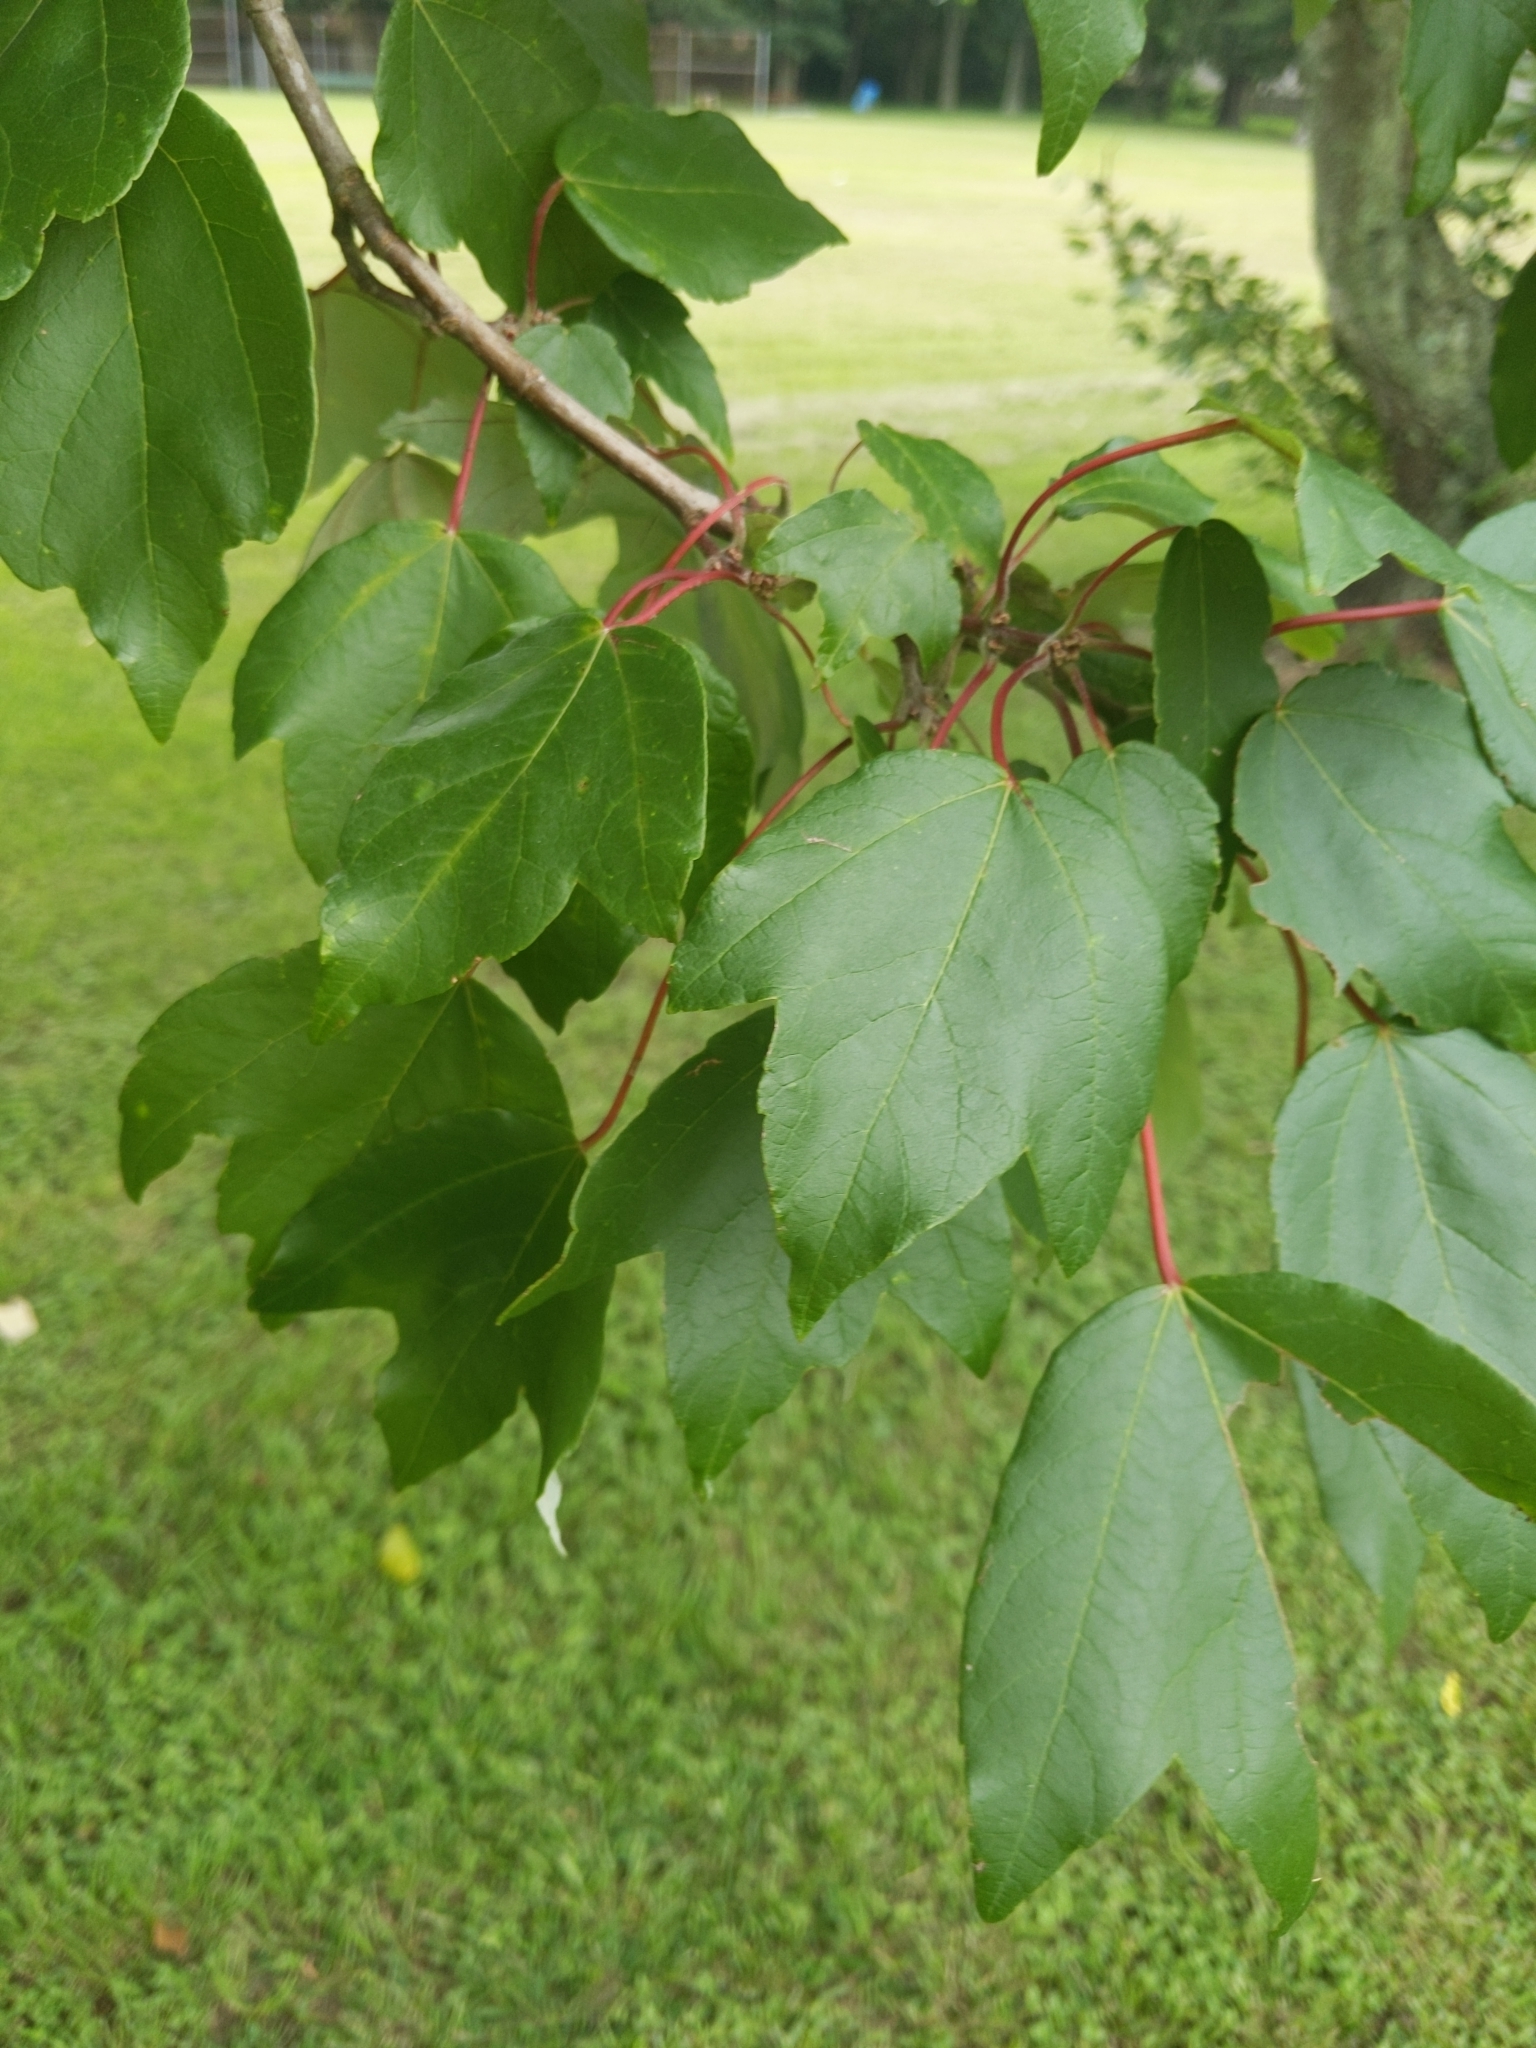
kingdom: Plantae
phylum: Tracheophyta
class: Magnoliopsida
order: Sapindales
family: Sapindaceae
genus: Acer
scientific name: Acer rubrum
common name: Red maple
